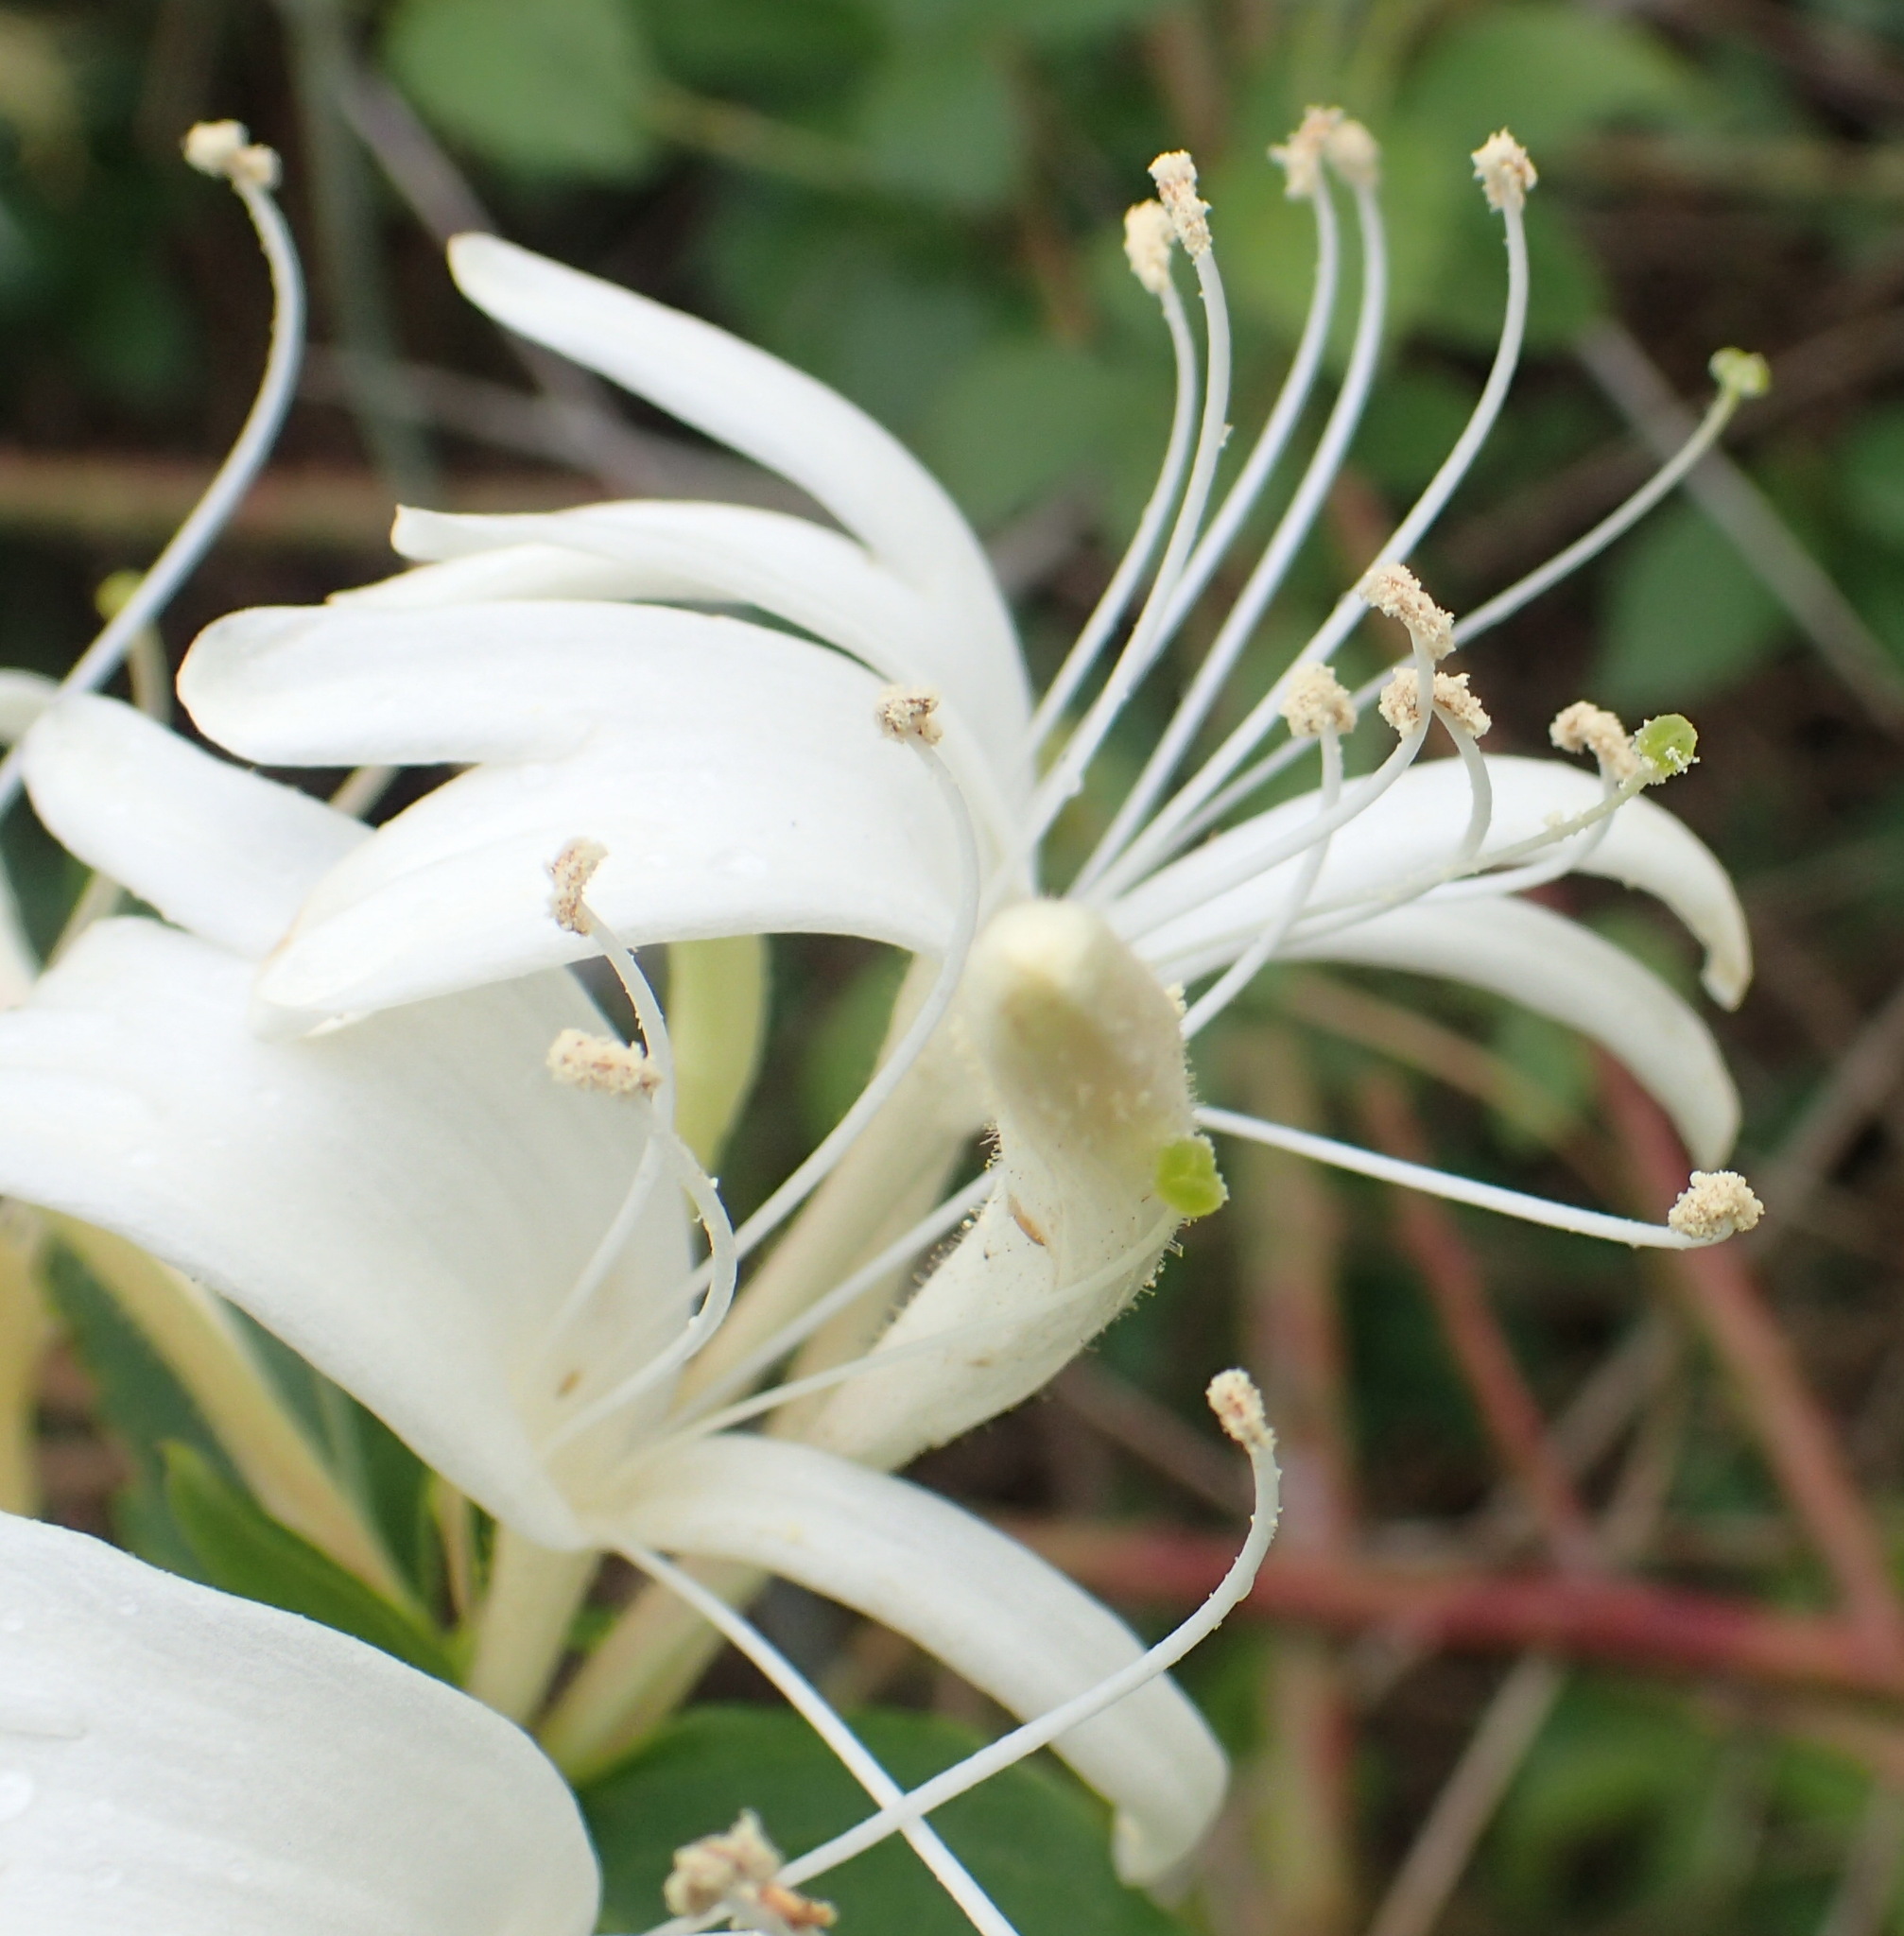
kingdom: Plantae
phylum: Tracheophyta
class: Magnoliopsida
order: Dipsacales
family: Caprifoliaceae
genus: Lonicera
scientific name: Lonicera japonica
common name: Japanese honeysuckle
